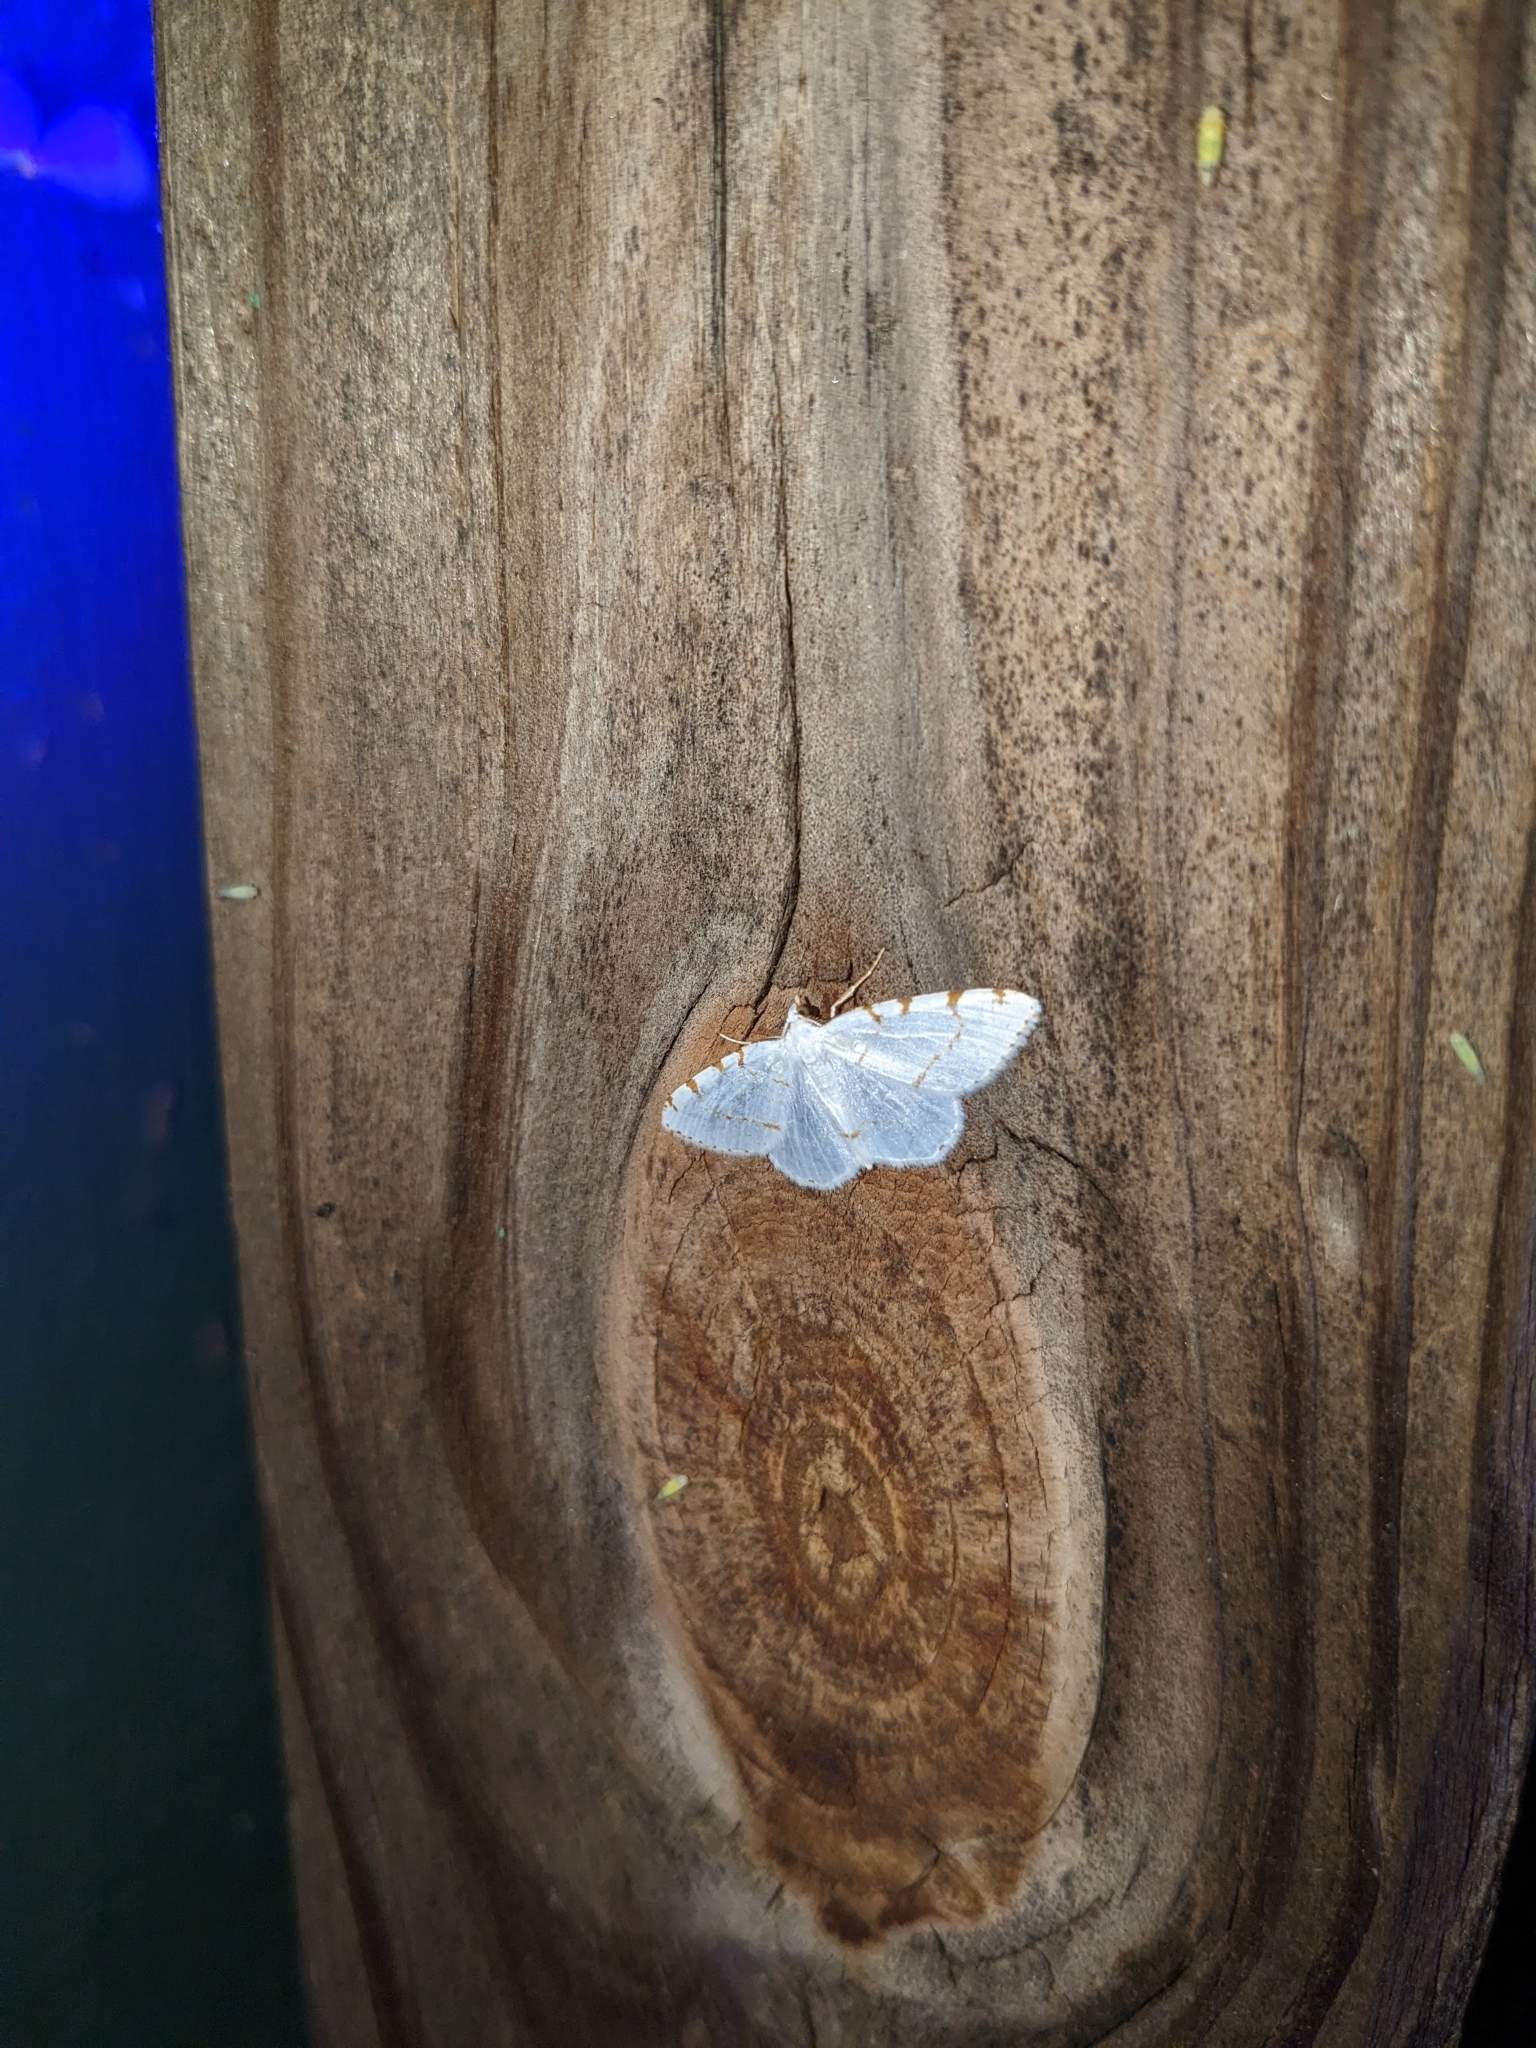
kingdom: Animalia
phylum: Arthropoda
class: Insecta
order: Lepidoptera
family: Geometridae
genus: Macaria
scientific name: Macaria pustularia
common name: Lesser maple spanworm moth
